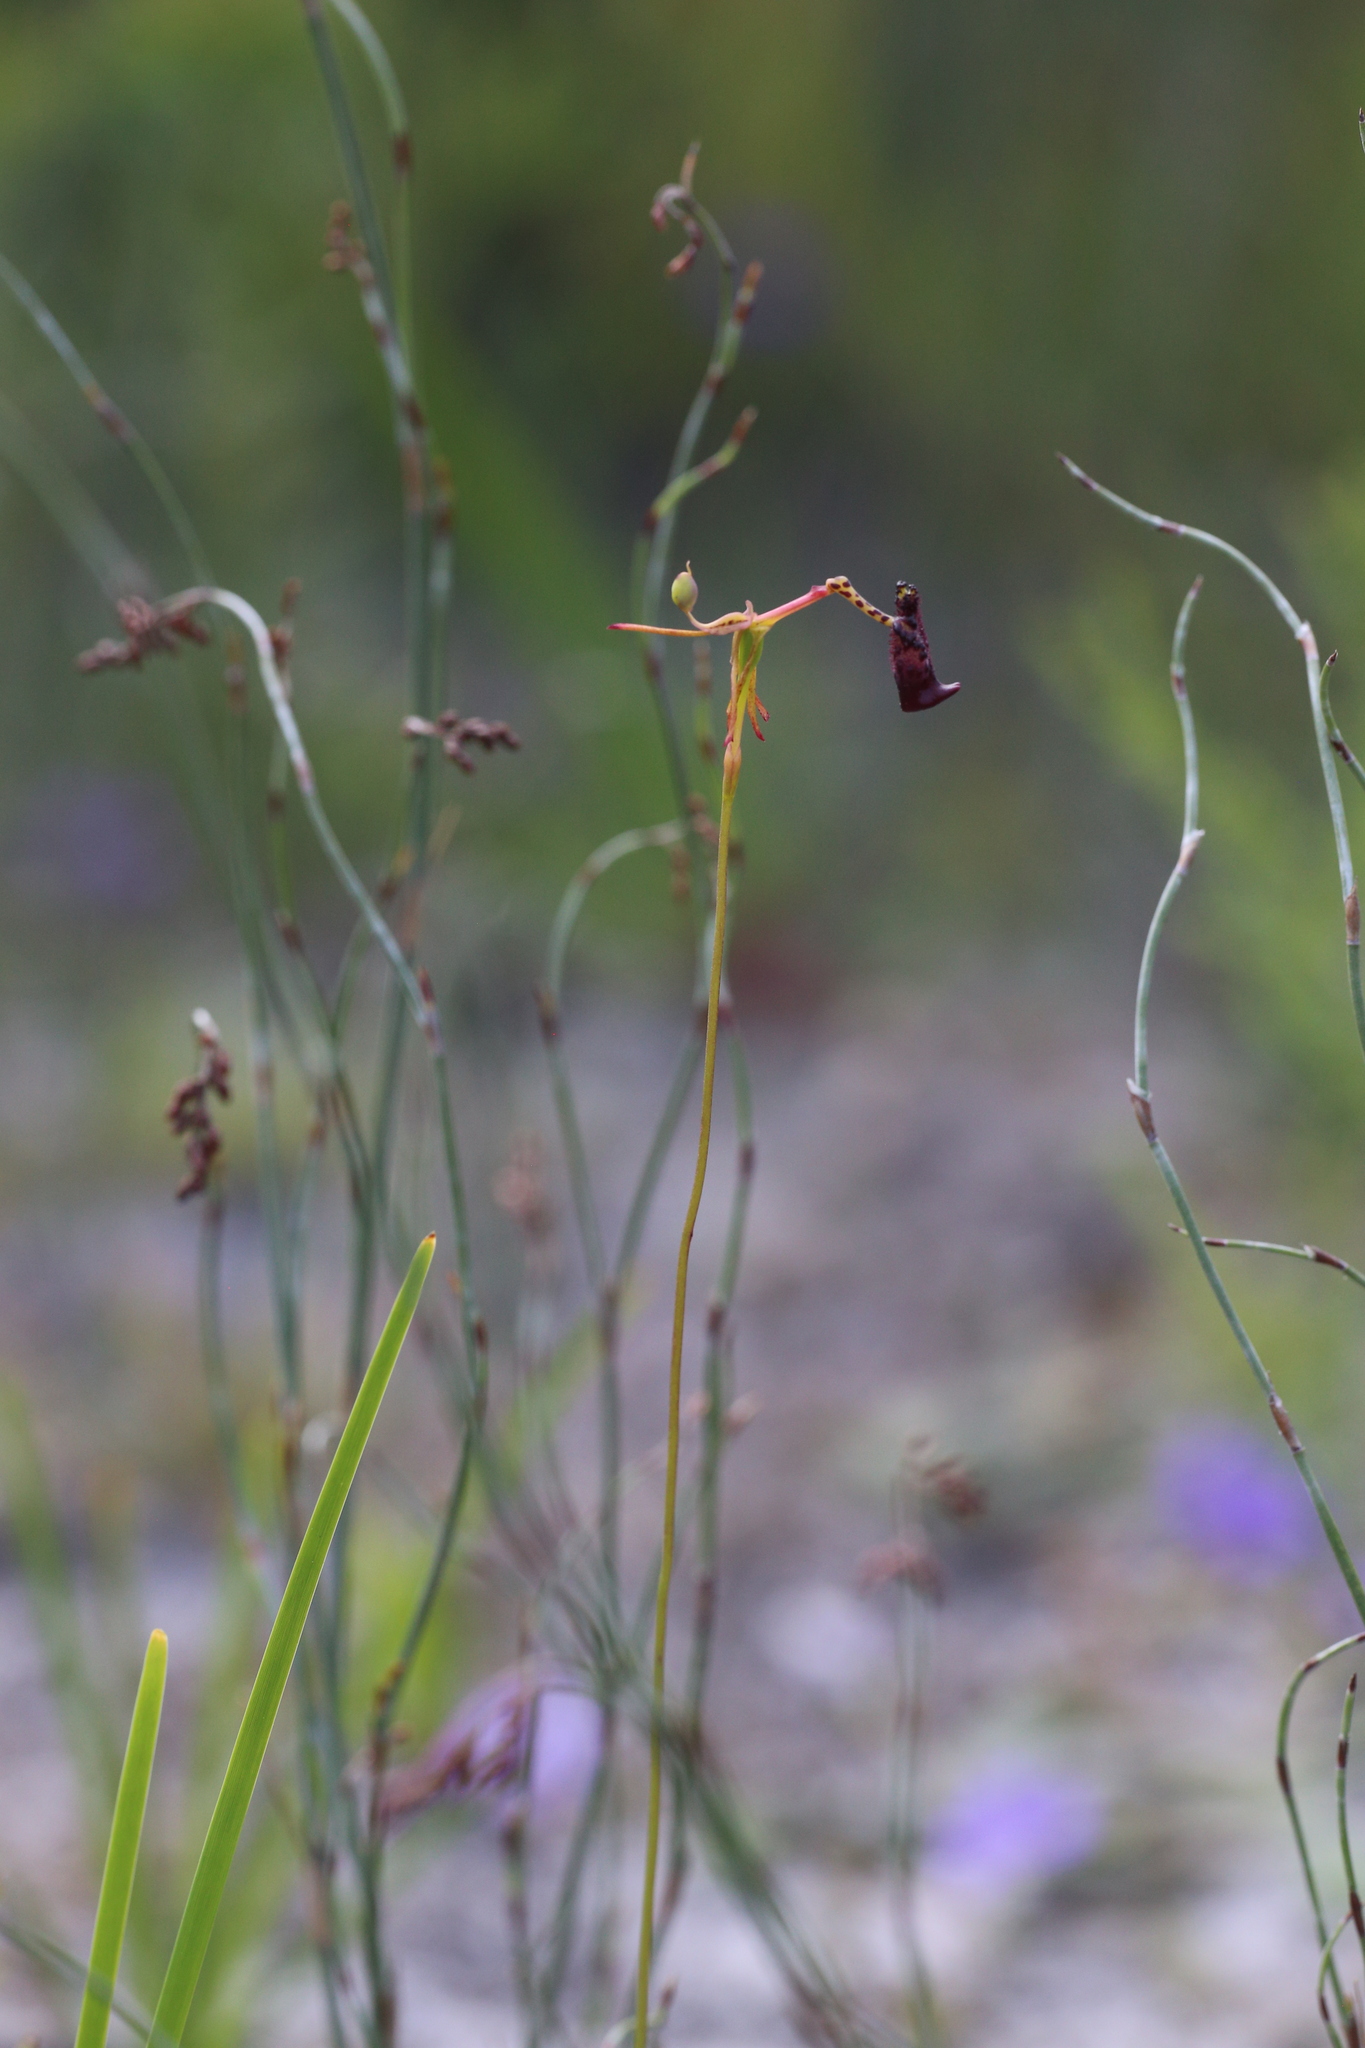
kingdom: Plantae
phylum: Tracheophyta
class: Liliopsida
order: Asparagales
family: Orchidaceae
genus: Drakaea
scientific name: Drakaea livida
